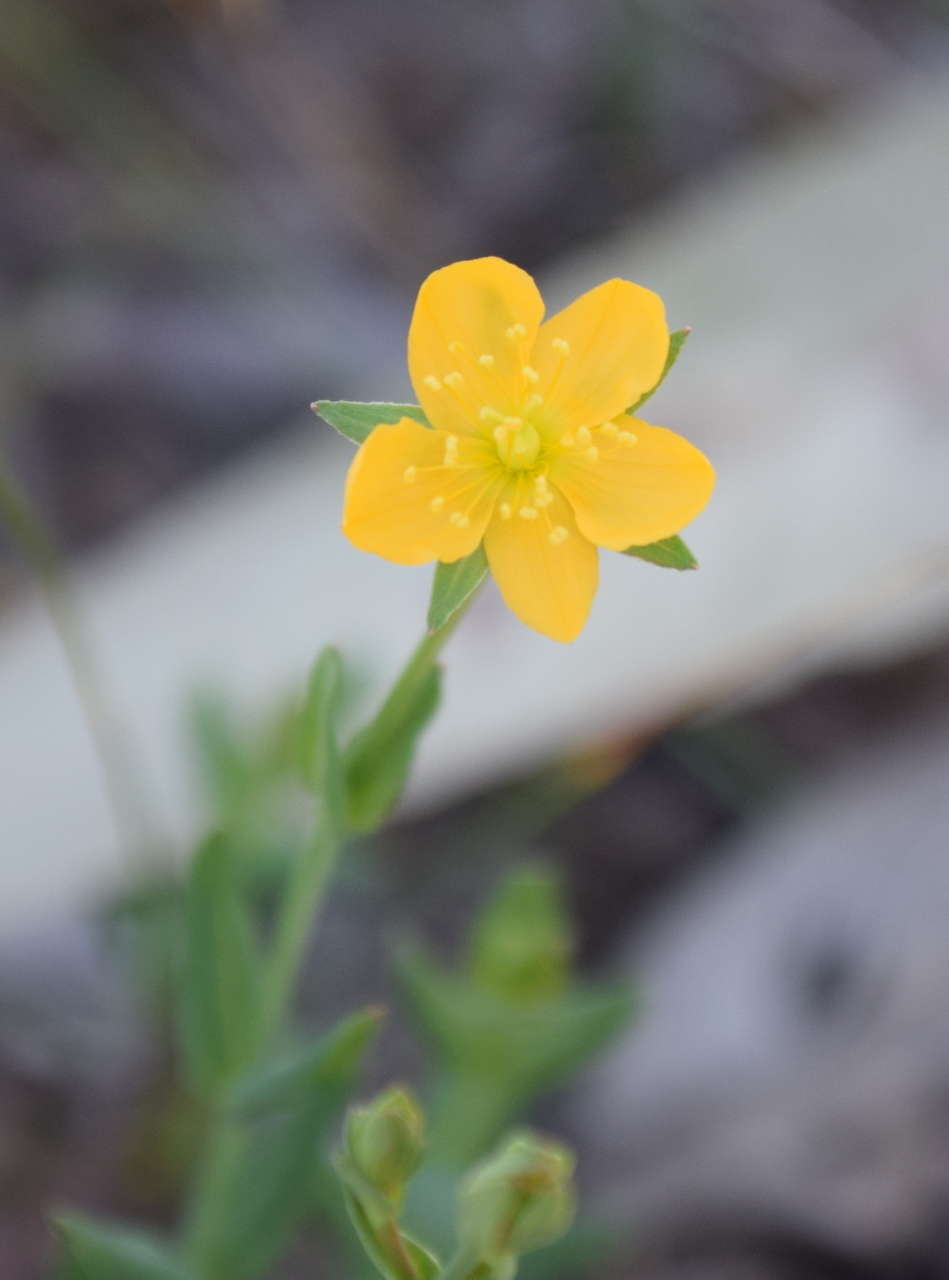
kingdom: Plantae
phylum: Tracheophyta
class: Magnoliopsida
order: Malpighiales
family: Hypericaceae
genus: Hypericum
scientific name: Hypericum gramineum
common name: Grassy st. johnswort
